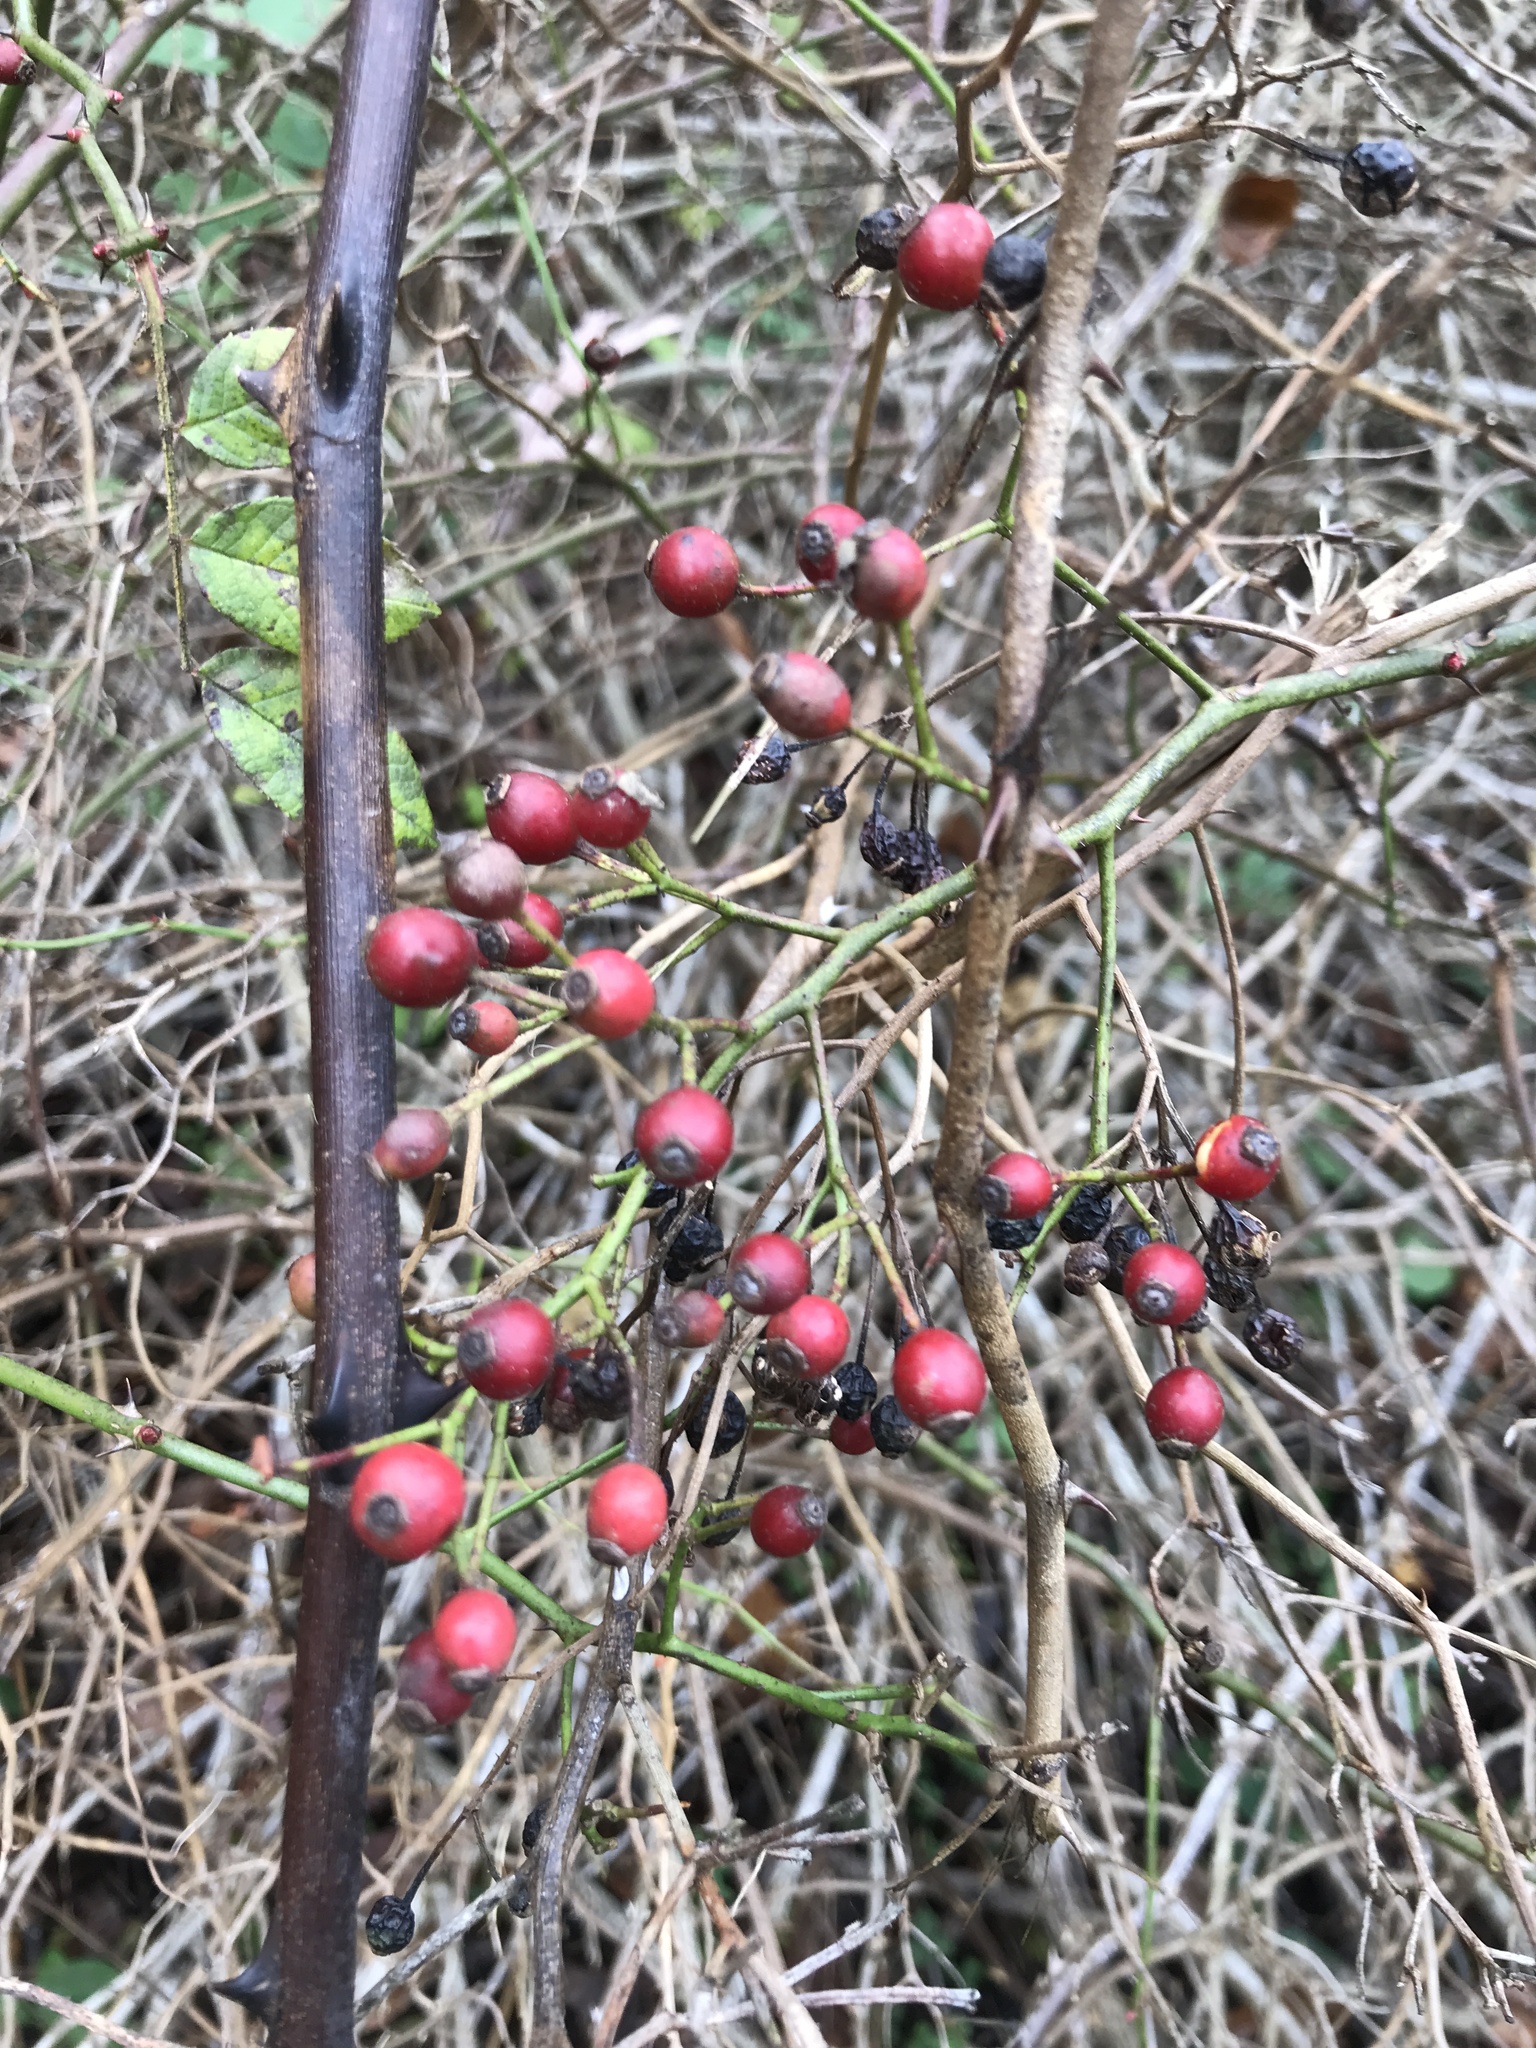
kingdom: Plantae
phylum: Tracheophyta
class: Magnoliopsida
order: Rosales
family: Rosaceae
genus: Rosa
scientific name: Rosa multiflora
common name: Multiflora rose
